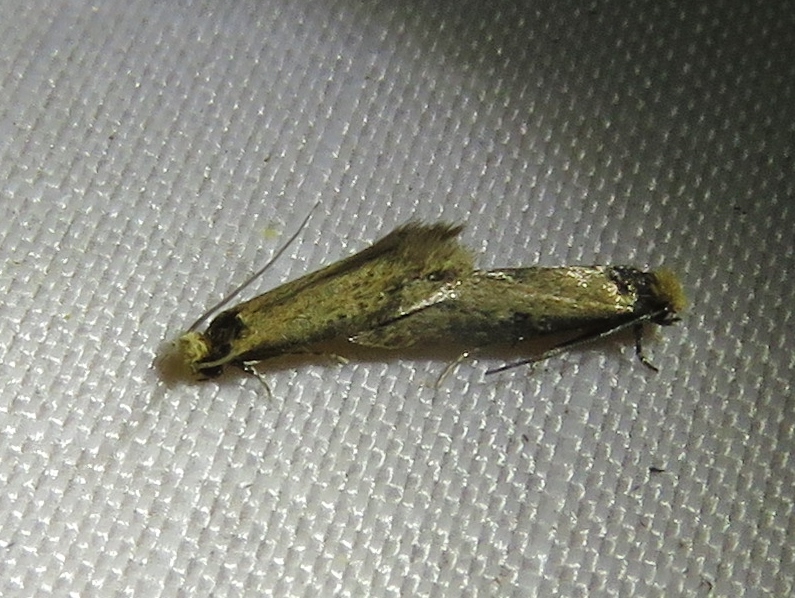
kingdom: Animalia
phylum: Arthropoda
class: Insecta
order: Lepidoptera
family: Meessiidae
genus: Homostinea
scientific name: Homostinea curviliniella
